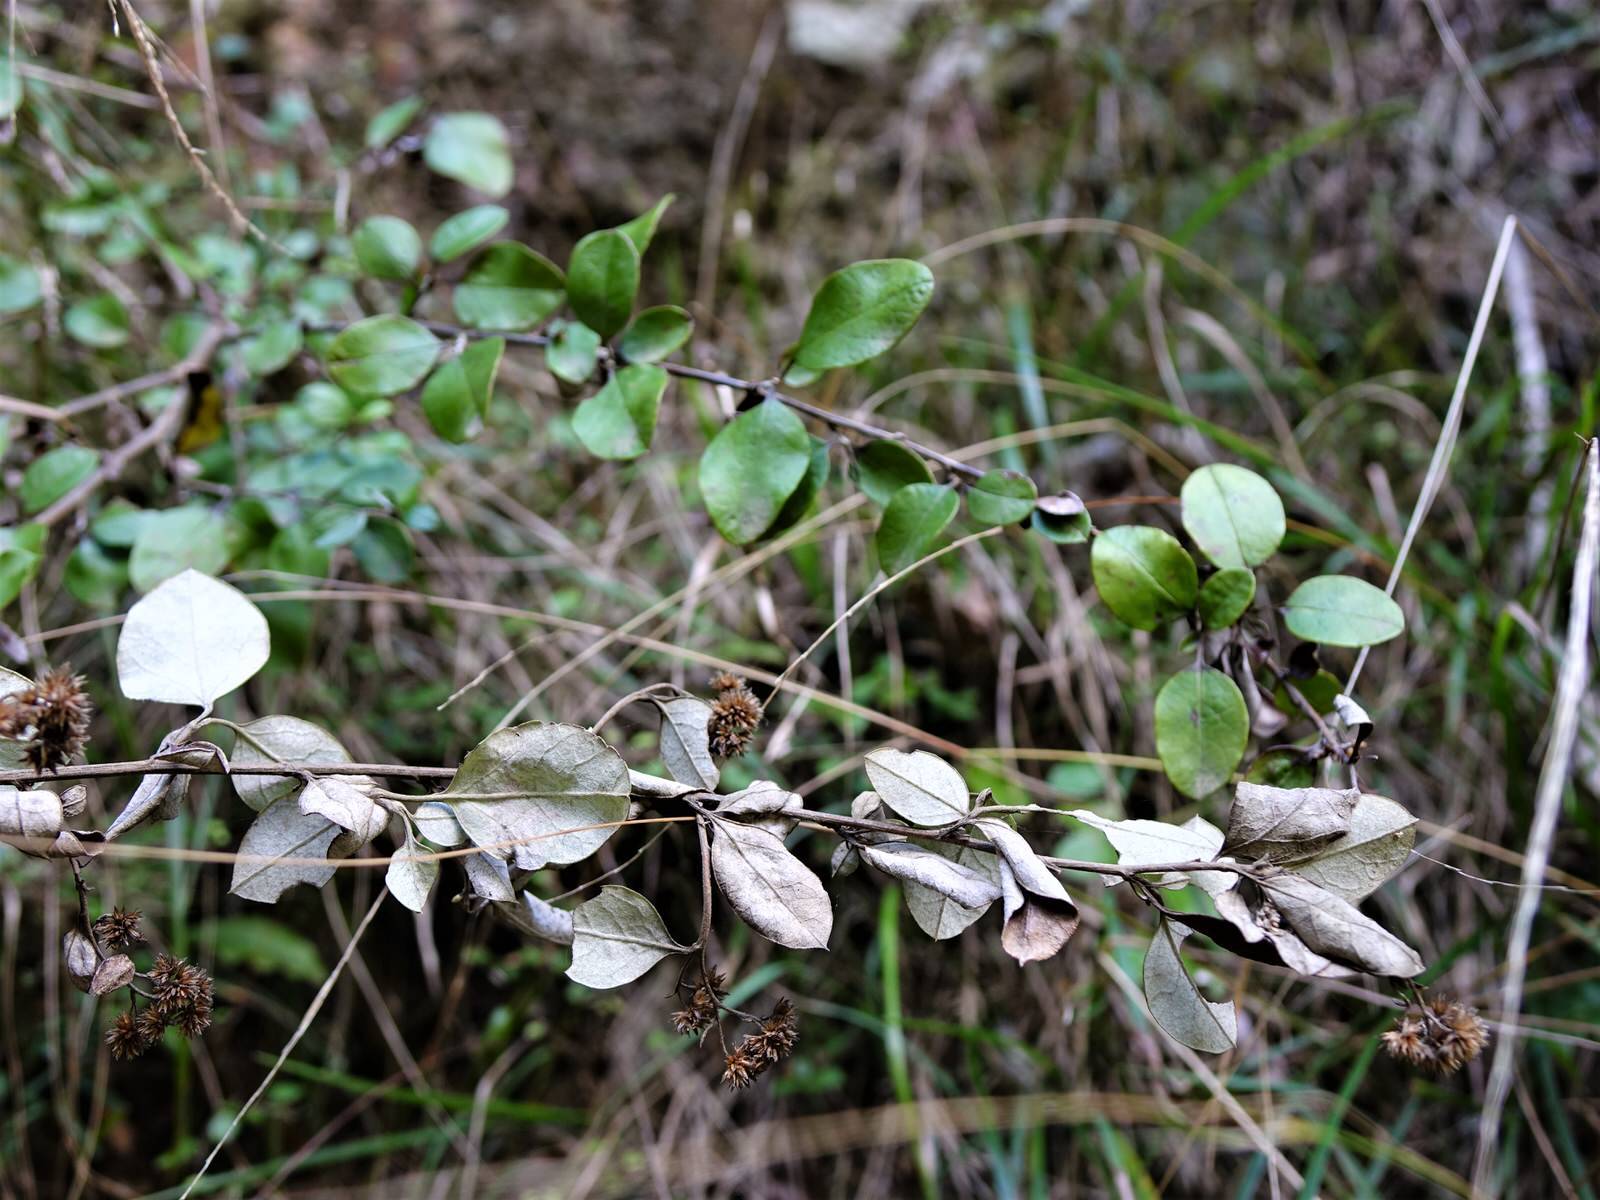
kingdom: Plantae
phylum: Tracheophyta
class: Magnoliopsida
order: Asterales
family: Asteraceae
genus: Ozothamnus
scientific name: Ozothamnus glomeratus
